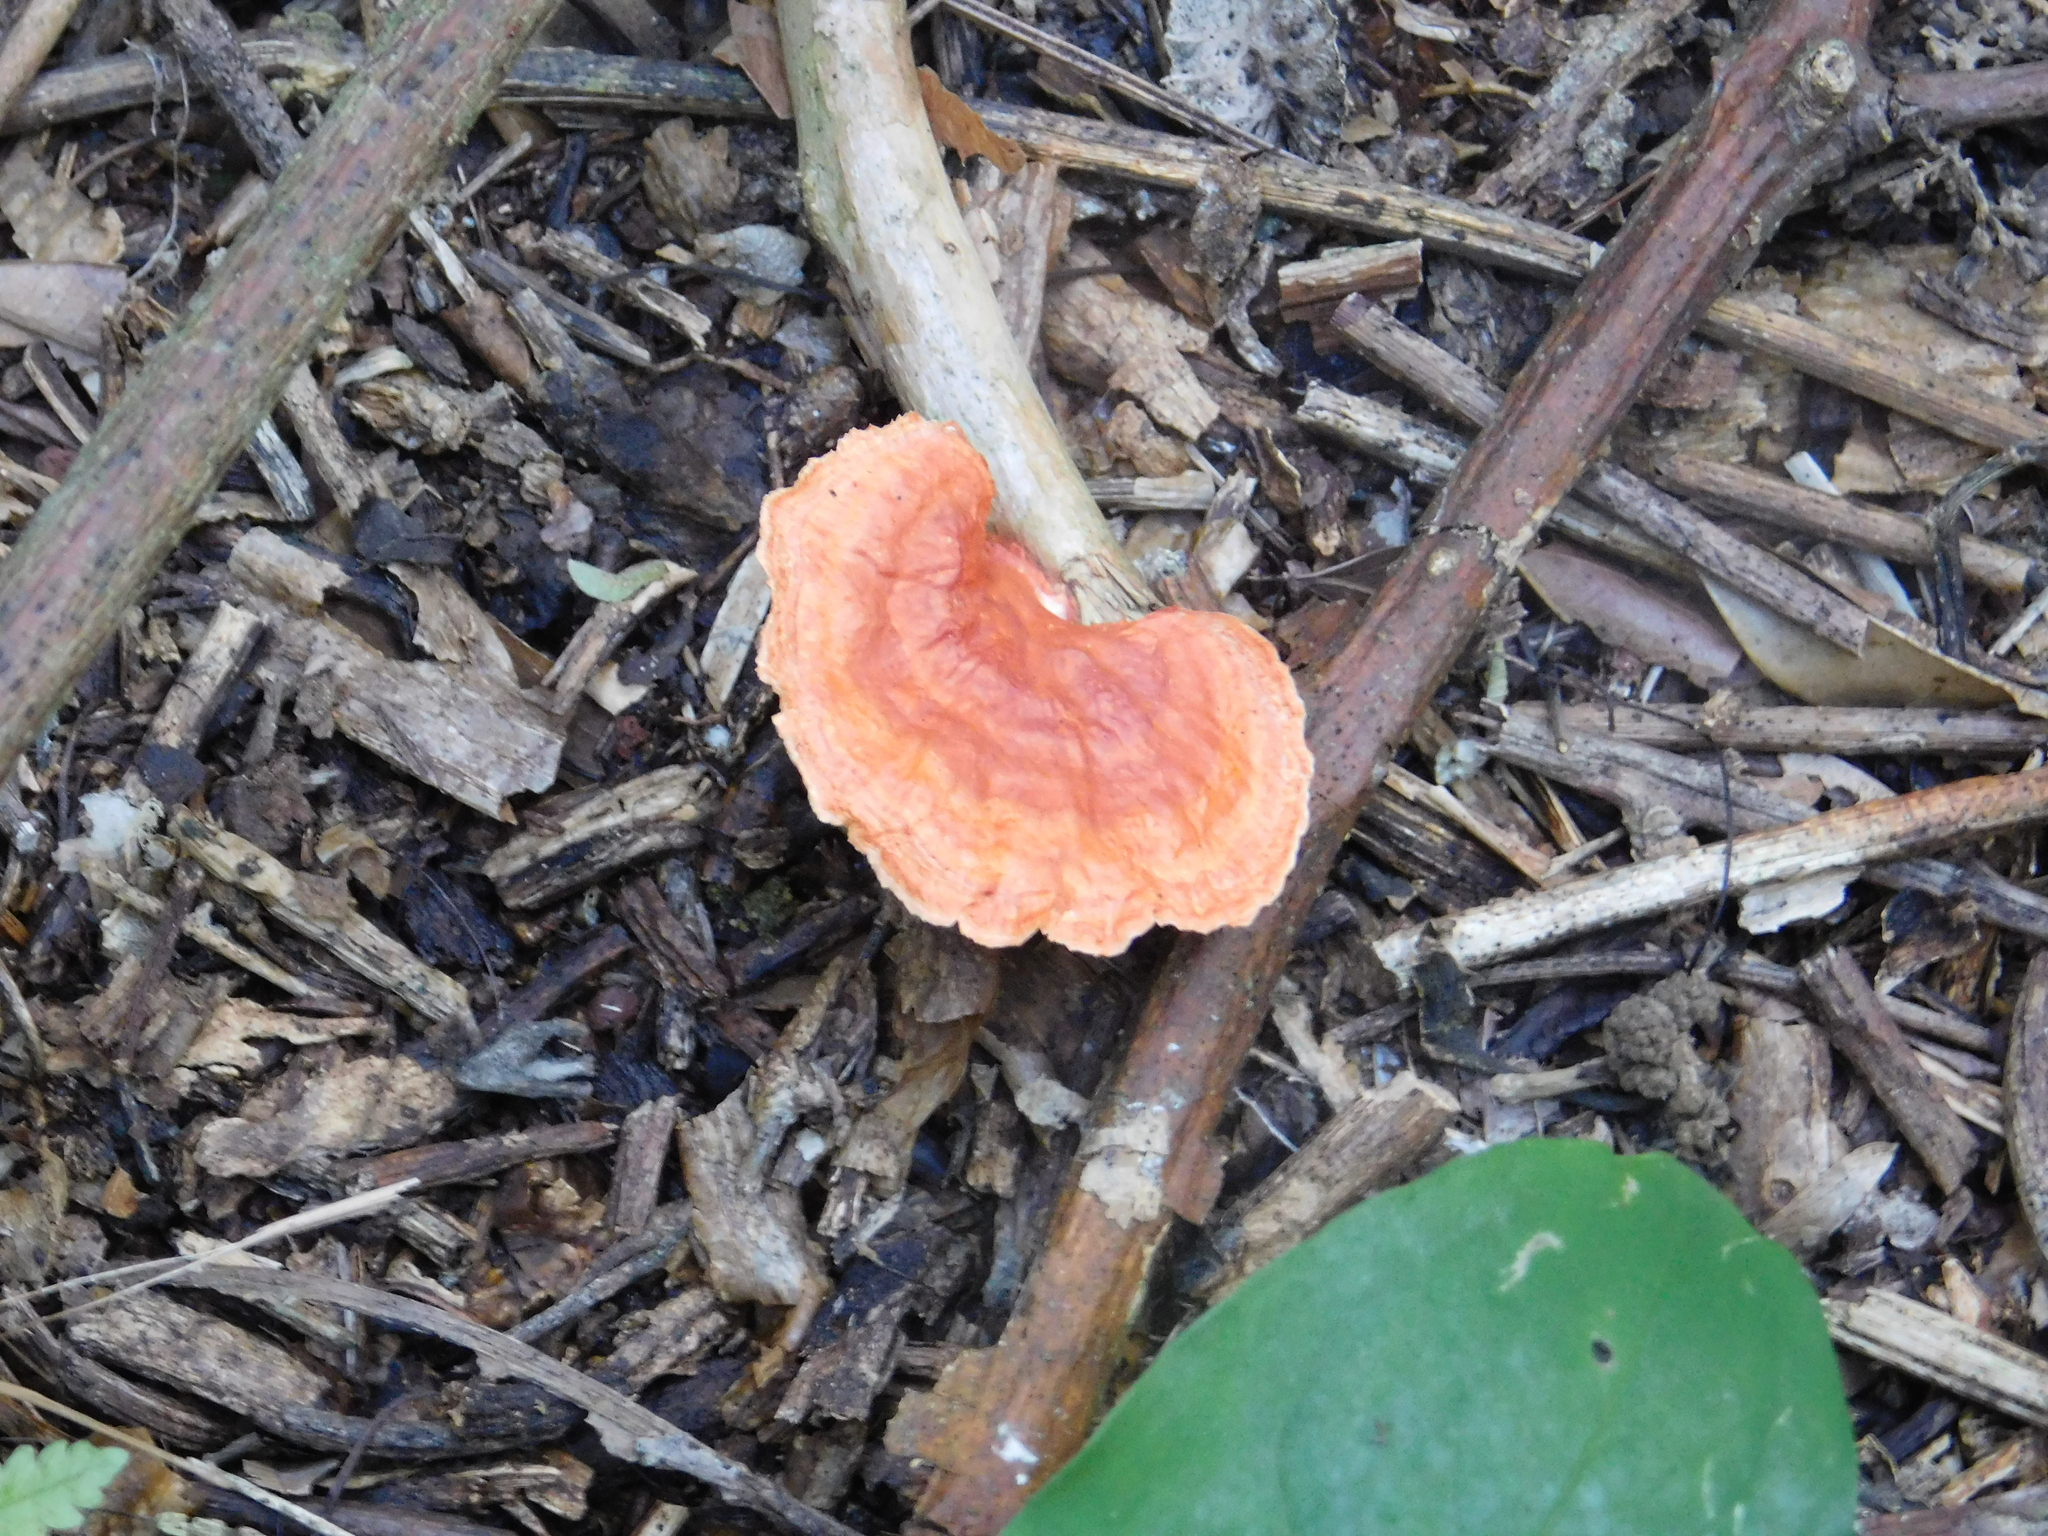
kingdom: Fungi
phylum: Basidiomycota
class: Agaricomycetes
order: Polyporales
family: Polyporaceae
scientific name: Polyporaceae
